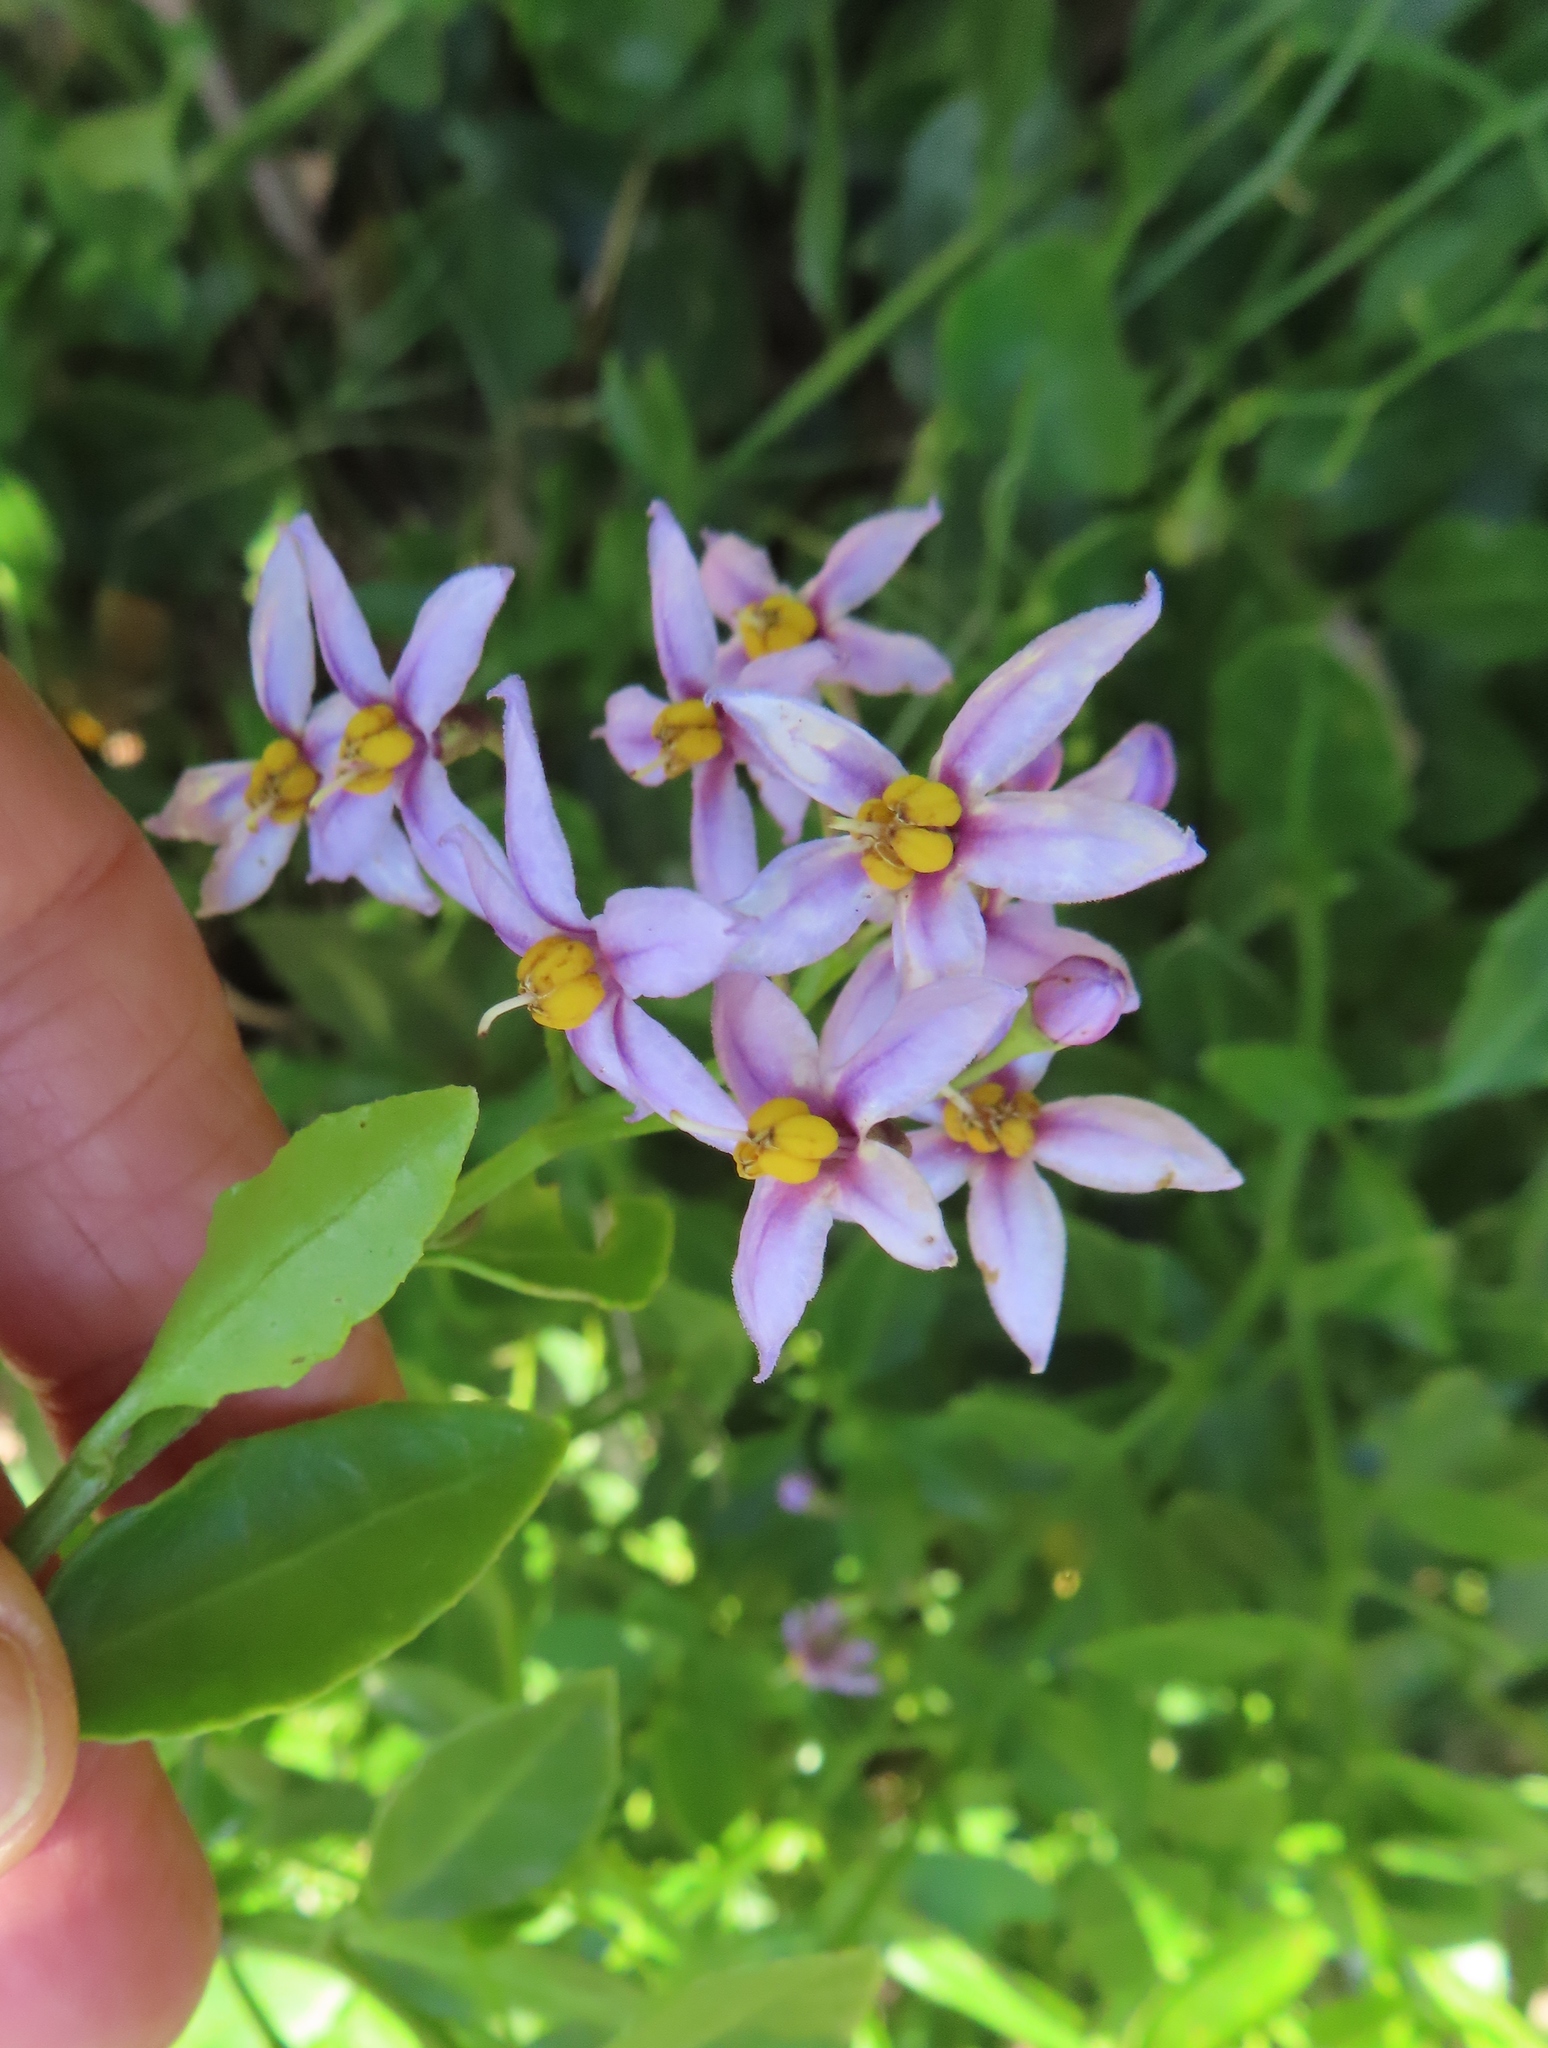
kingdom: Plantae
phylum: Tracheophyta
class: Magnoliopsida
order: Solanales
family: Solanaceae
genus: Solanum
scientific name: Solanum africanum
